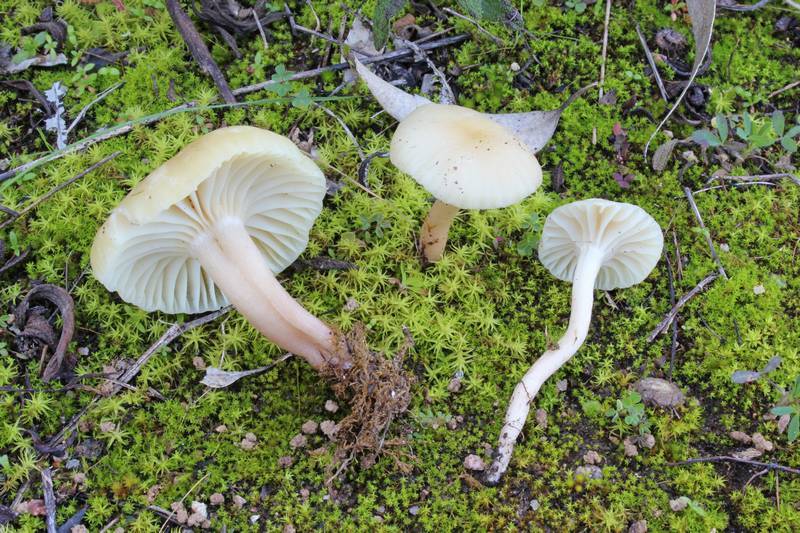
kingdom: Fungi
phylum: Basidiomycota
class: Agaricomycetes
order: Agaricales
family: Hygrophoraceae
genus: Cuphophyllus
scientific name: Cuphophyllus russocoriaceus
